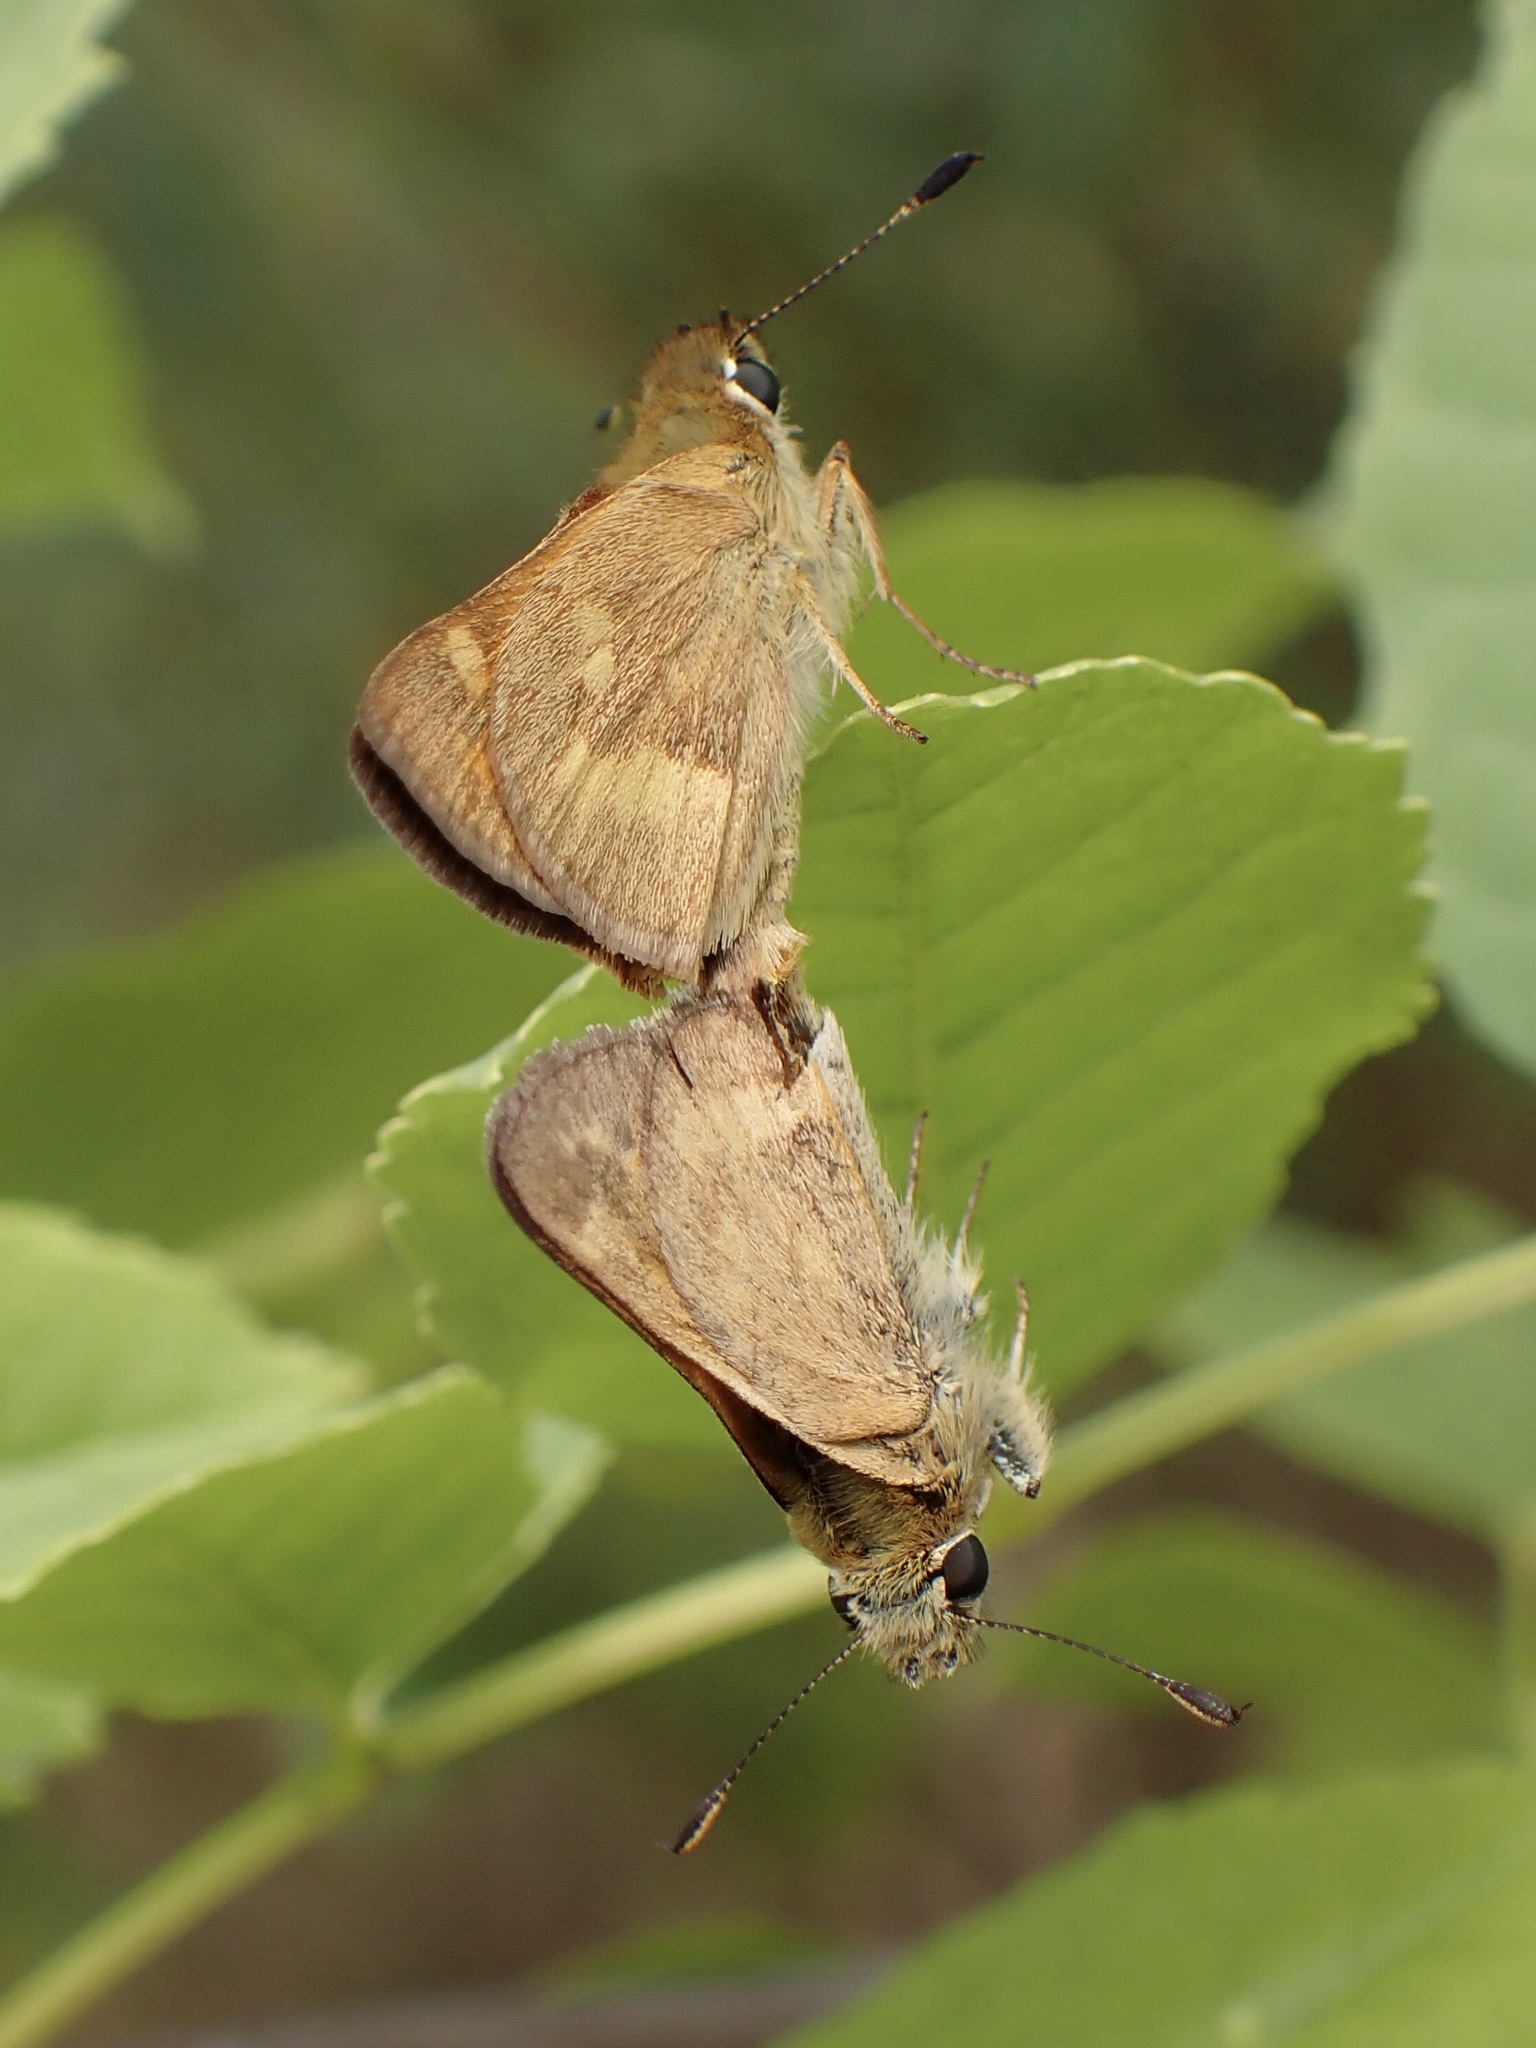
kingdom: Animalia
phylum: Arthropoda
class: Insecta
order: Lepidoptera
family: Hesperiidae
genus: Ochlodes
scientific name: Ochlodes sylvanoides
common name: Woodland skipper
